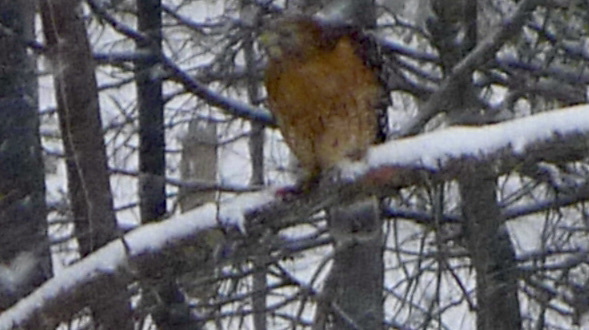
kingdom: Animalia
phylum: Chordata
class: Aves
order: Accipitriformes
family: Accipitridae
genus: Buteo
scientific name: Buteo lineatus
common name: Red-shouldered hawk
